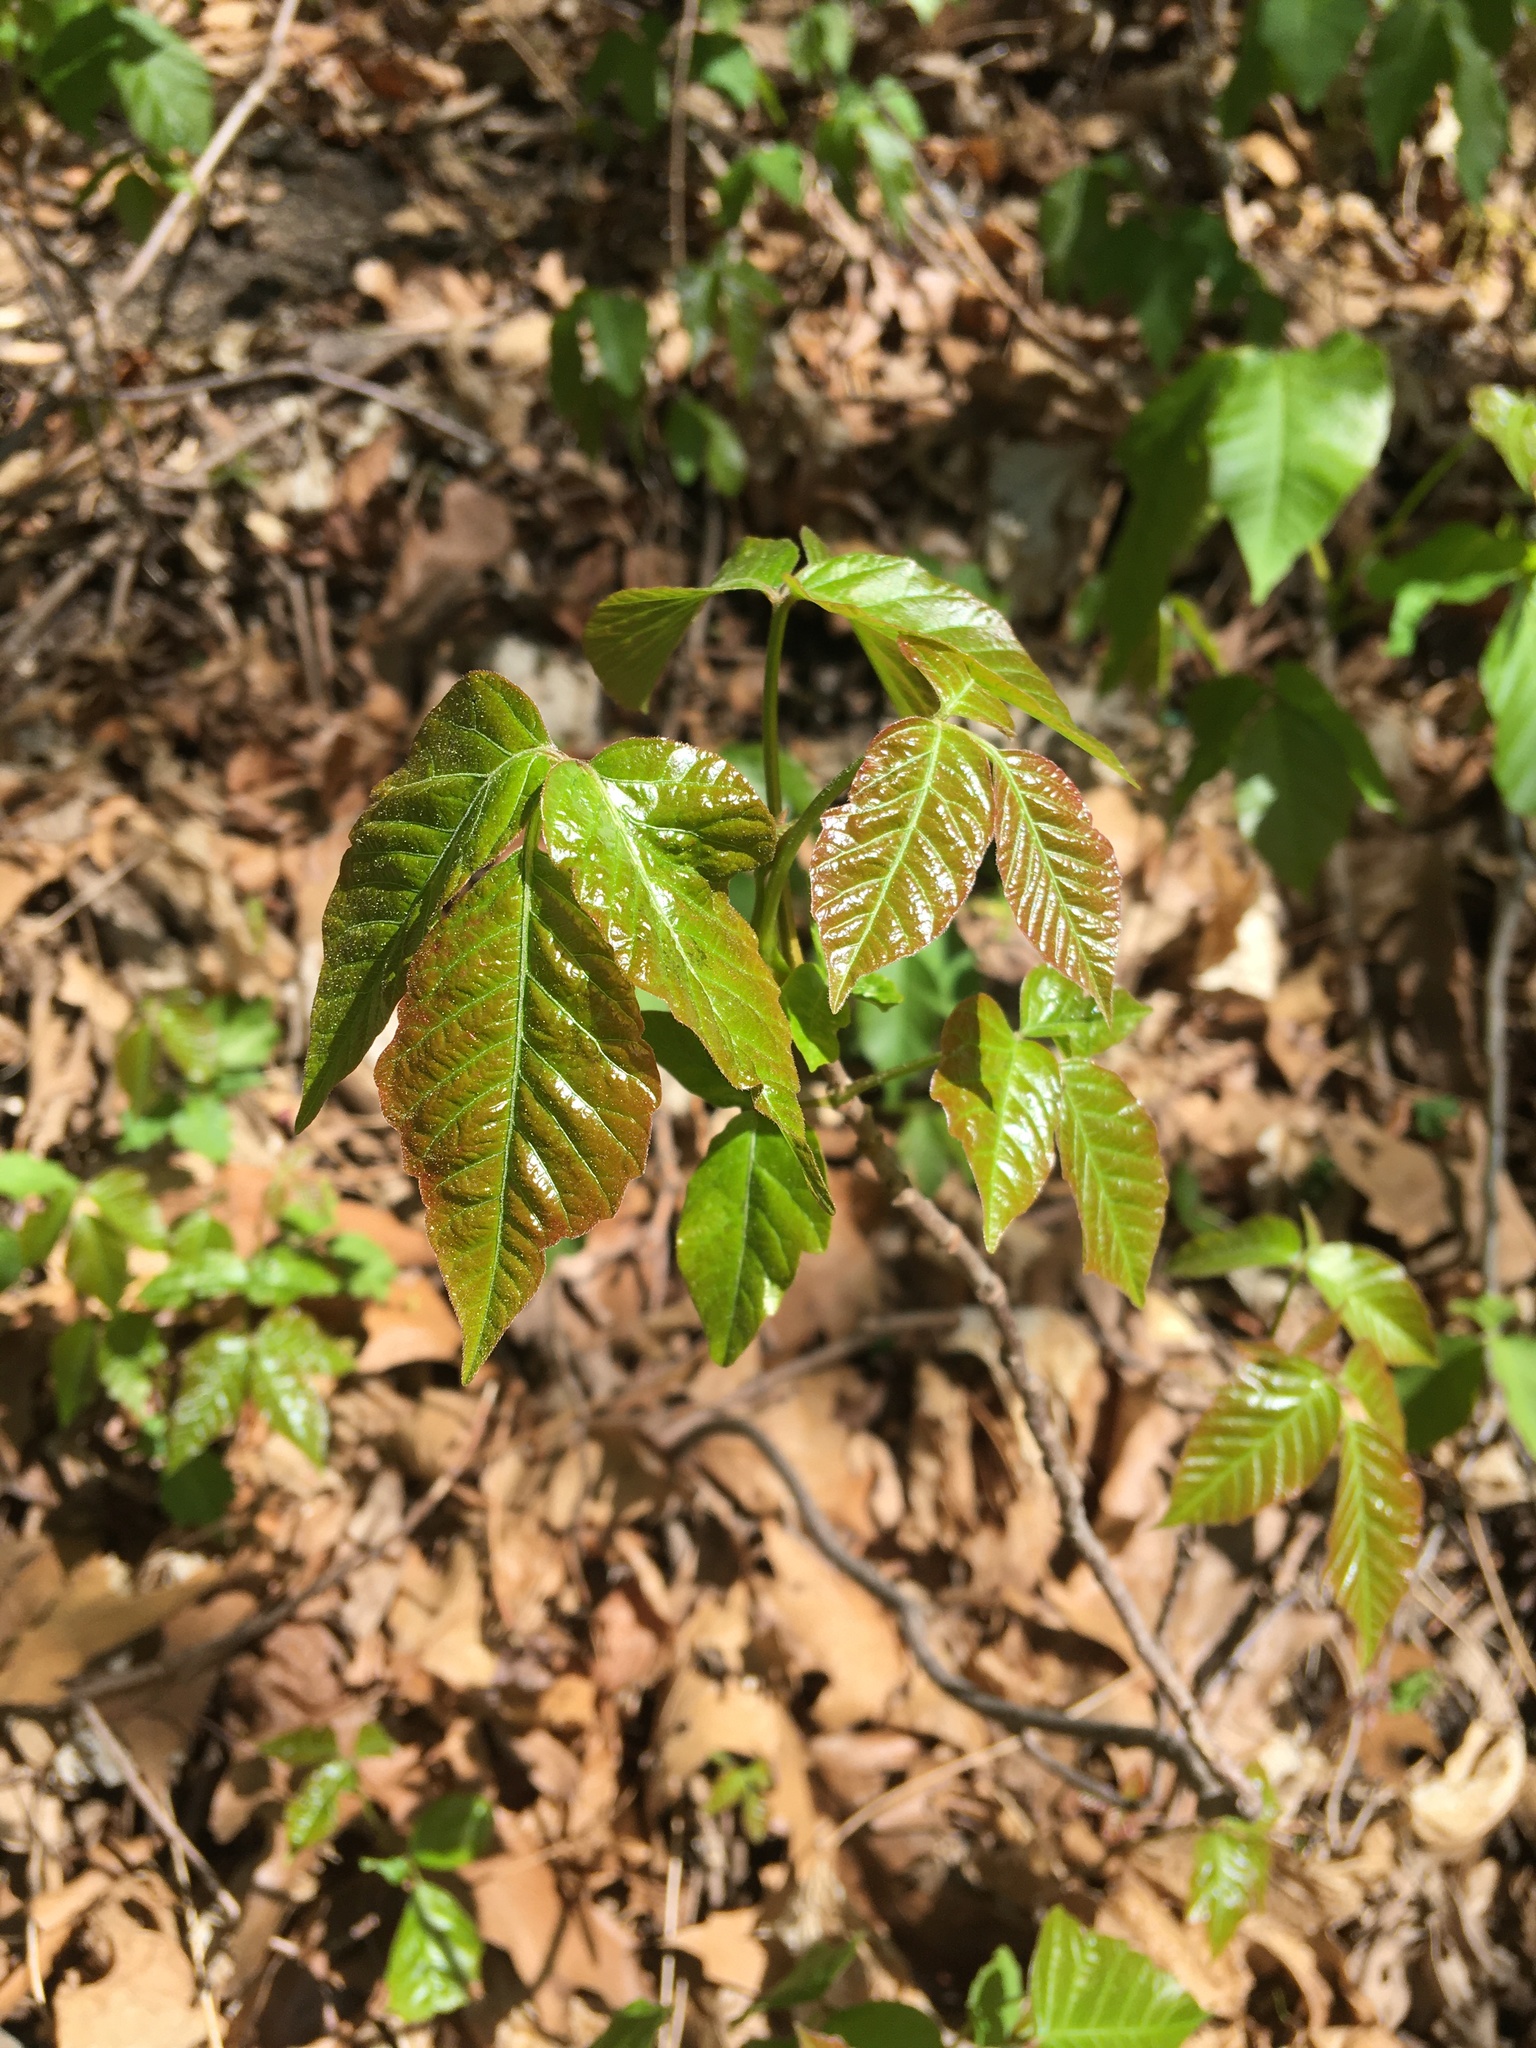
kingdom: Plantae
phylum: Tracheophyta
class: Magnoliopsida
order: Sapindales
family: Anacardiaceae
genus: Toxicodendron
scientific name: Toxicodendron radicans
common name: Poison ivy
